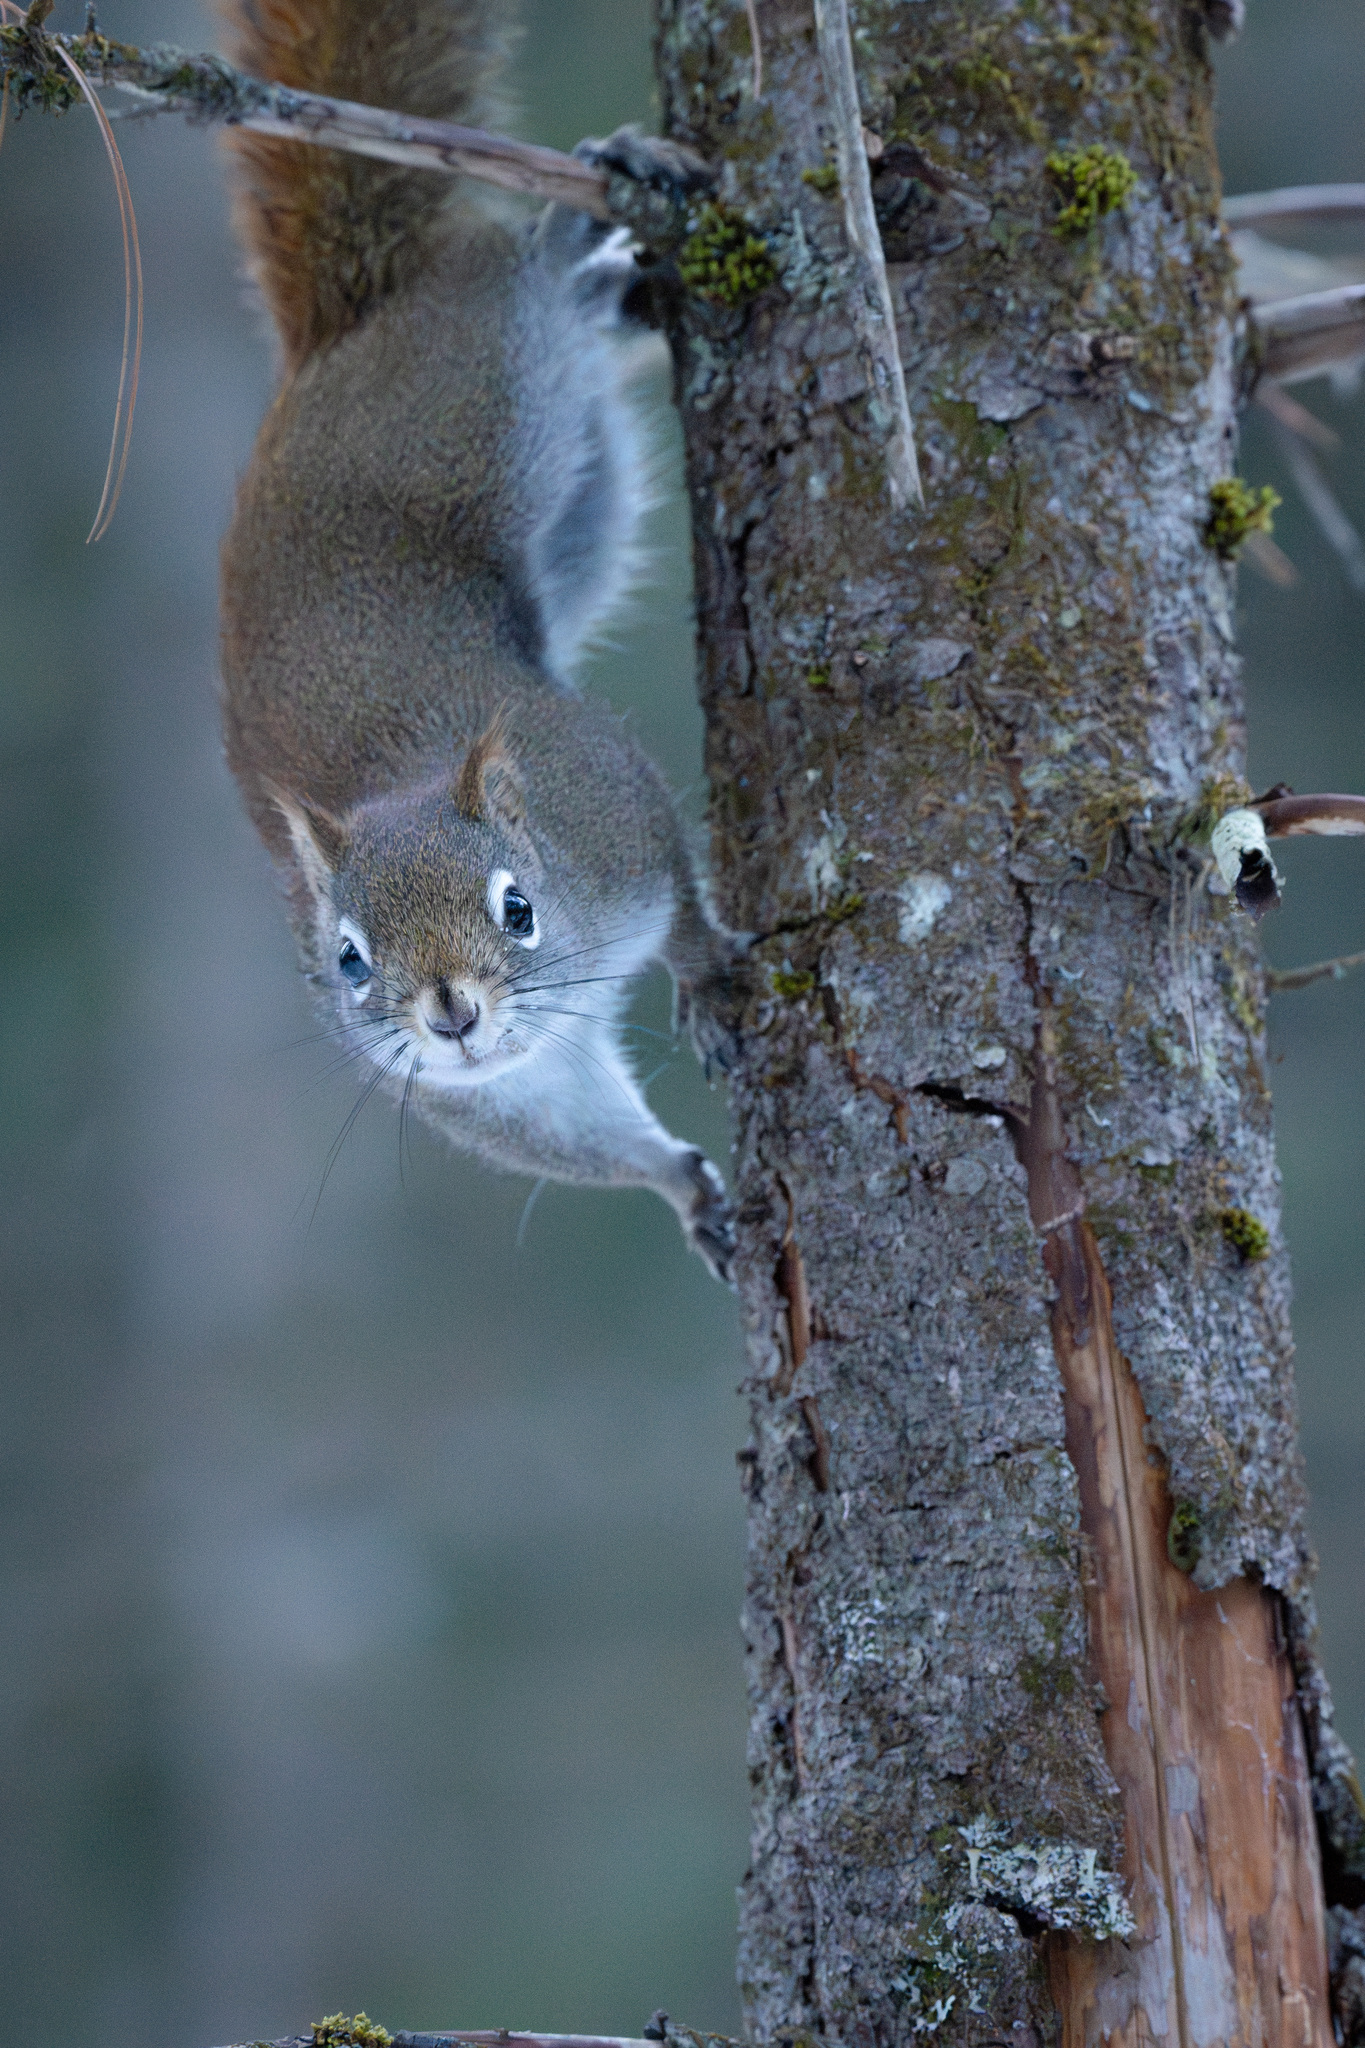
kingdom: Animalia
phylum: Chordata
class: Mammalia
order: Rodentia
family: Sciuridae
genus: Tamiasciurus
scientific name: Tamiasciurus hudsonicus
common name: Red squirrel
